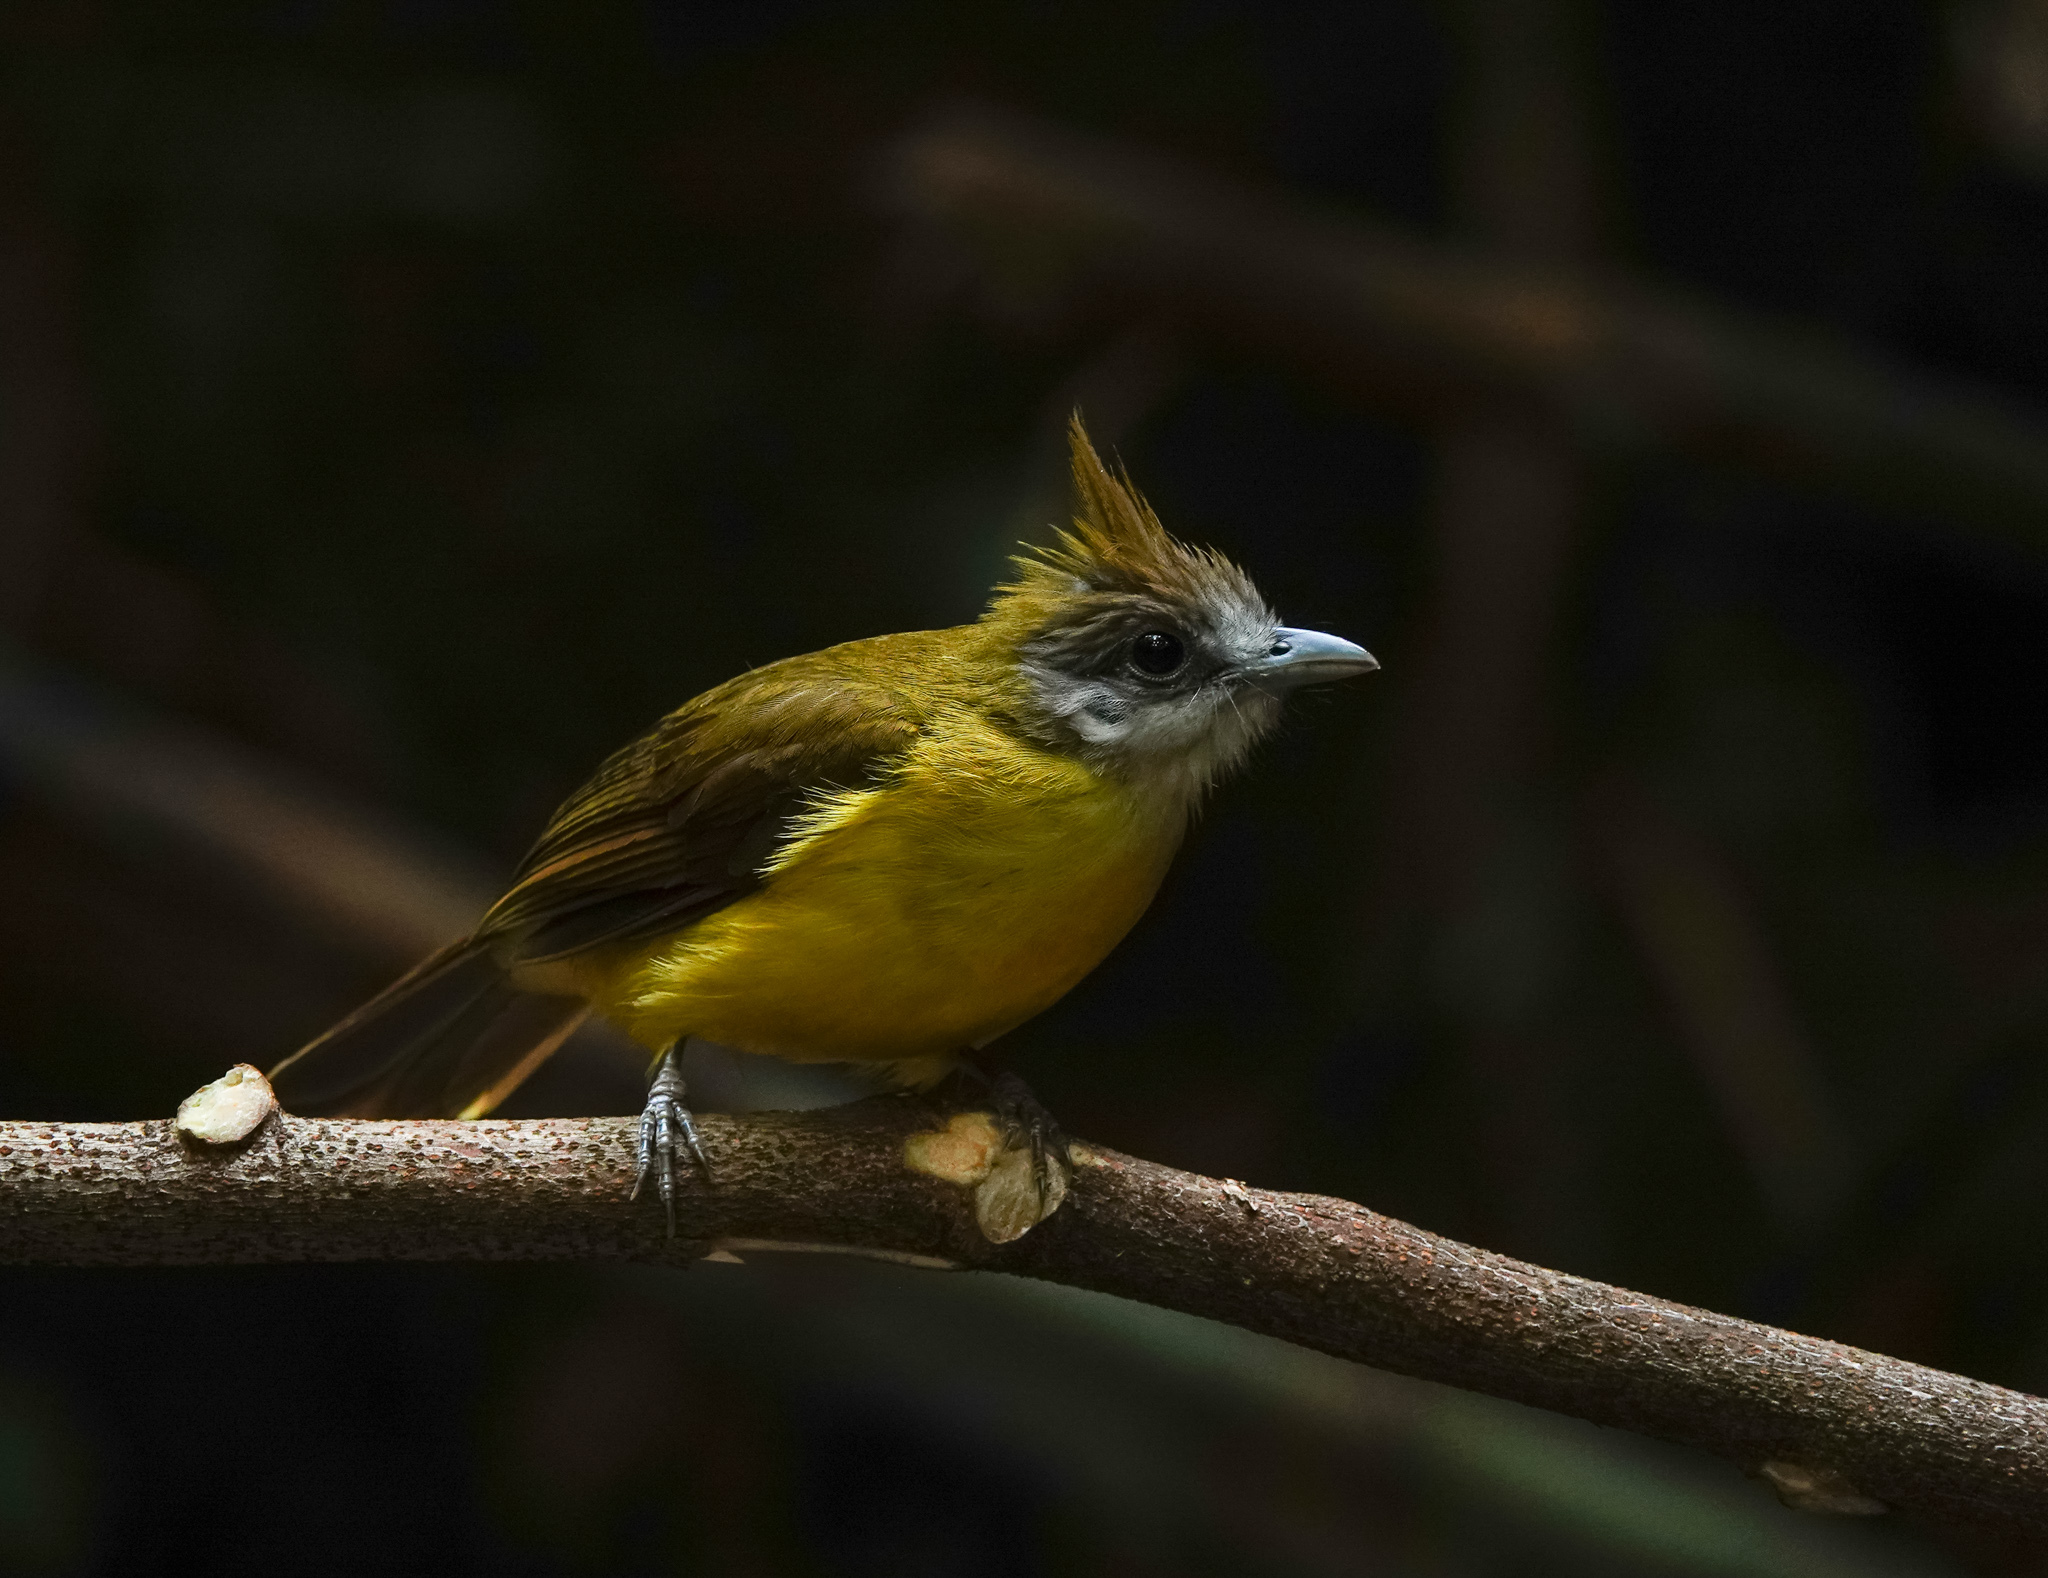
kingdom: Animalia
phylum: Chordata
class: Aves
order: Passeriformes
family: Pycnonotidae
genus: Alophoixus
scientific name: Alophoixus flaveolus
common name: White-throated bulbul
